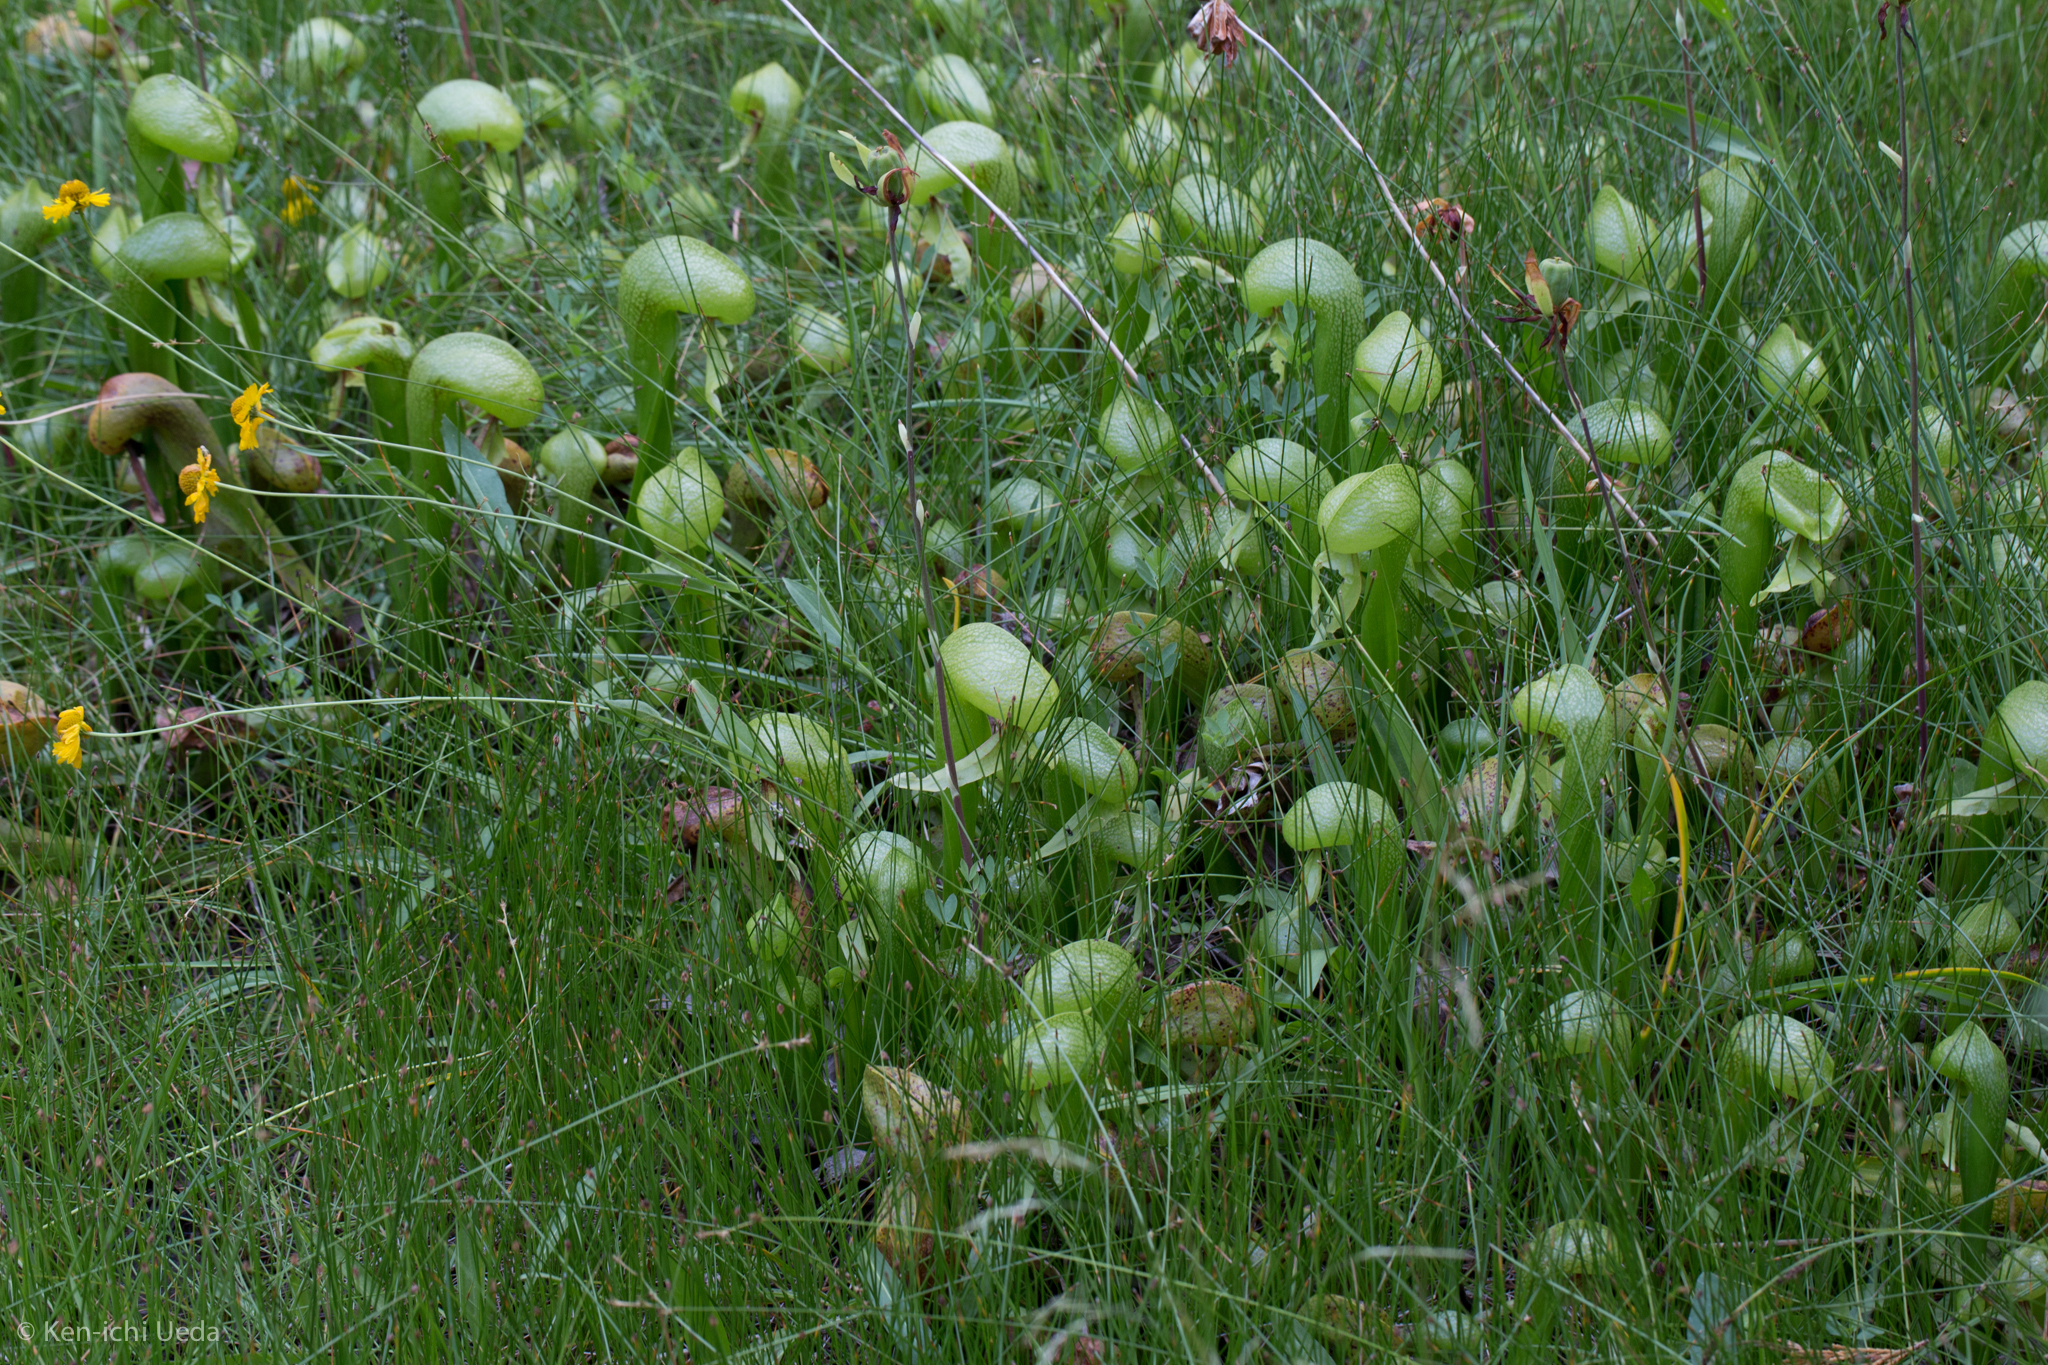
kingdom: Plantae
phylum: Tracheophyta
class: Magnoliopsida
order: Ericales
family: Sarraceniaceae
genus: Darlingtonia
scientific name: Darlingtonia californica
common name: California pitcher plant
